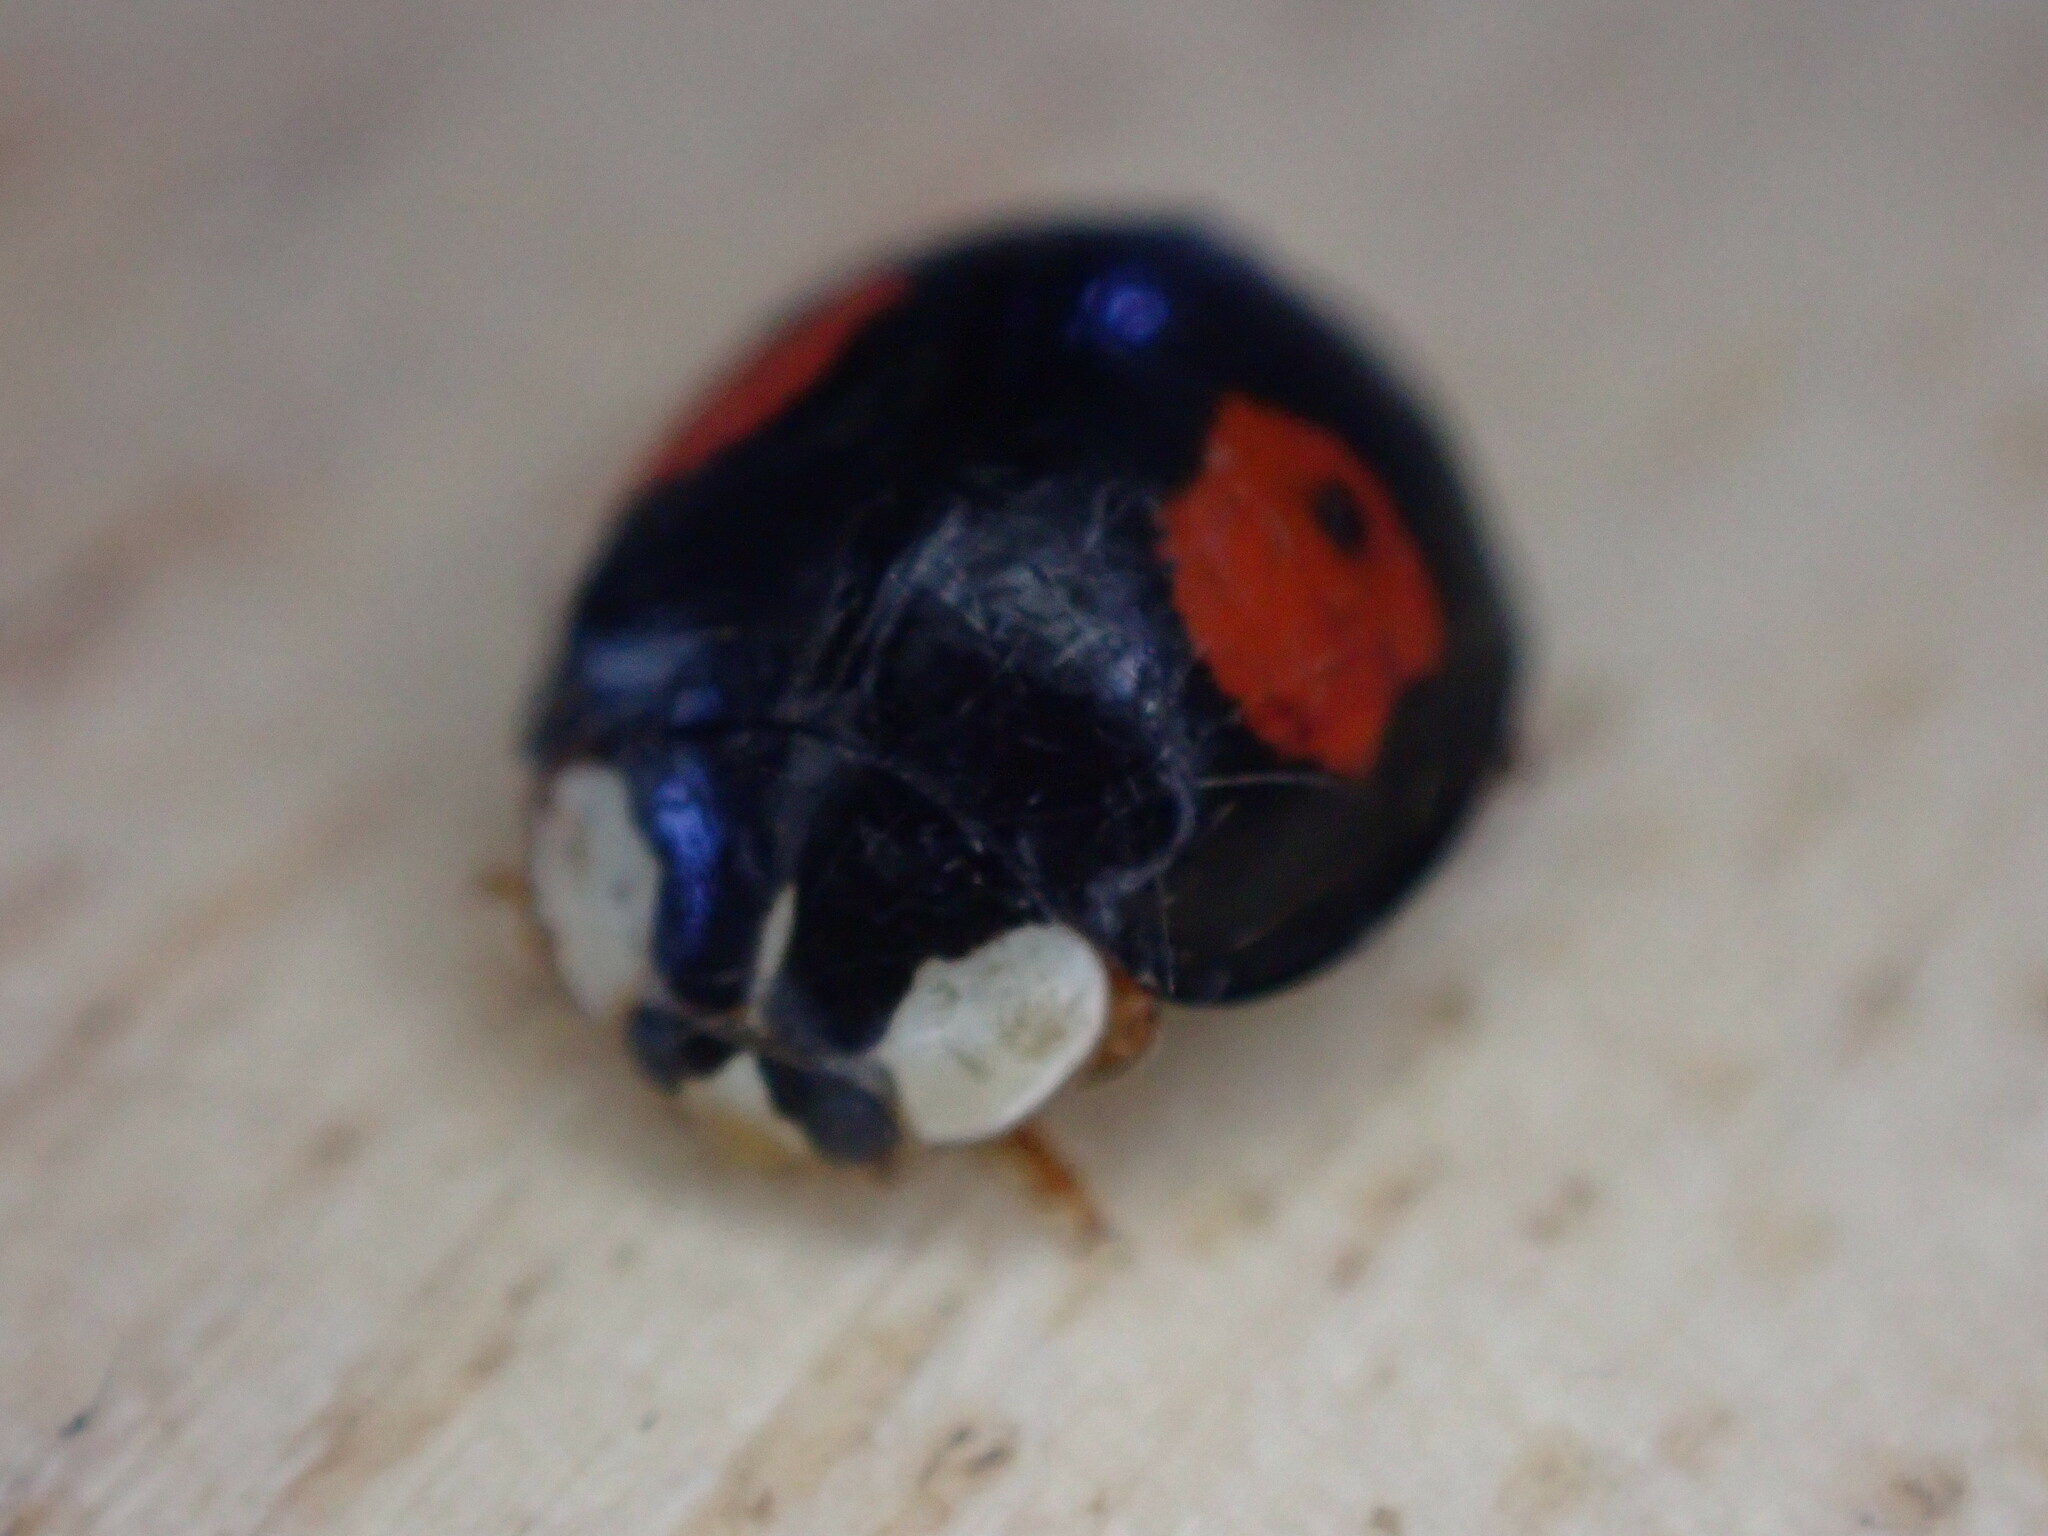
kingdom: Animalia
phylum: Arthropoda
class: Insecta
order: Coleoptera
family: Coccinellidae
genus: Harmonia
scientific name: Harmonia axyridis
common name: Harlequin ladybird
